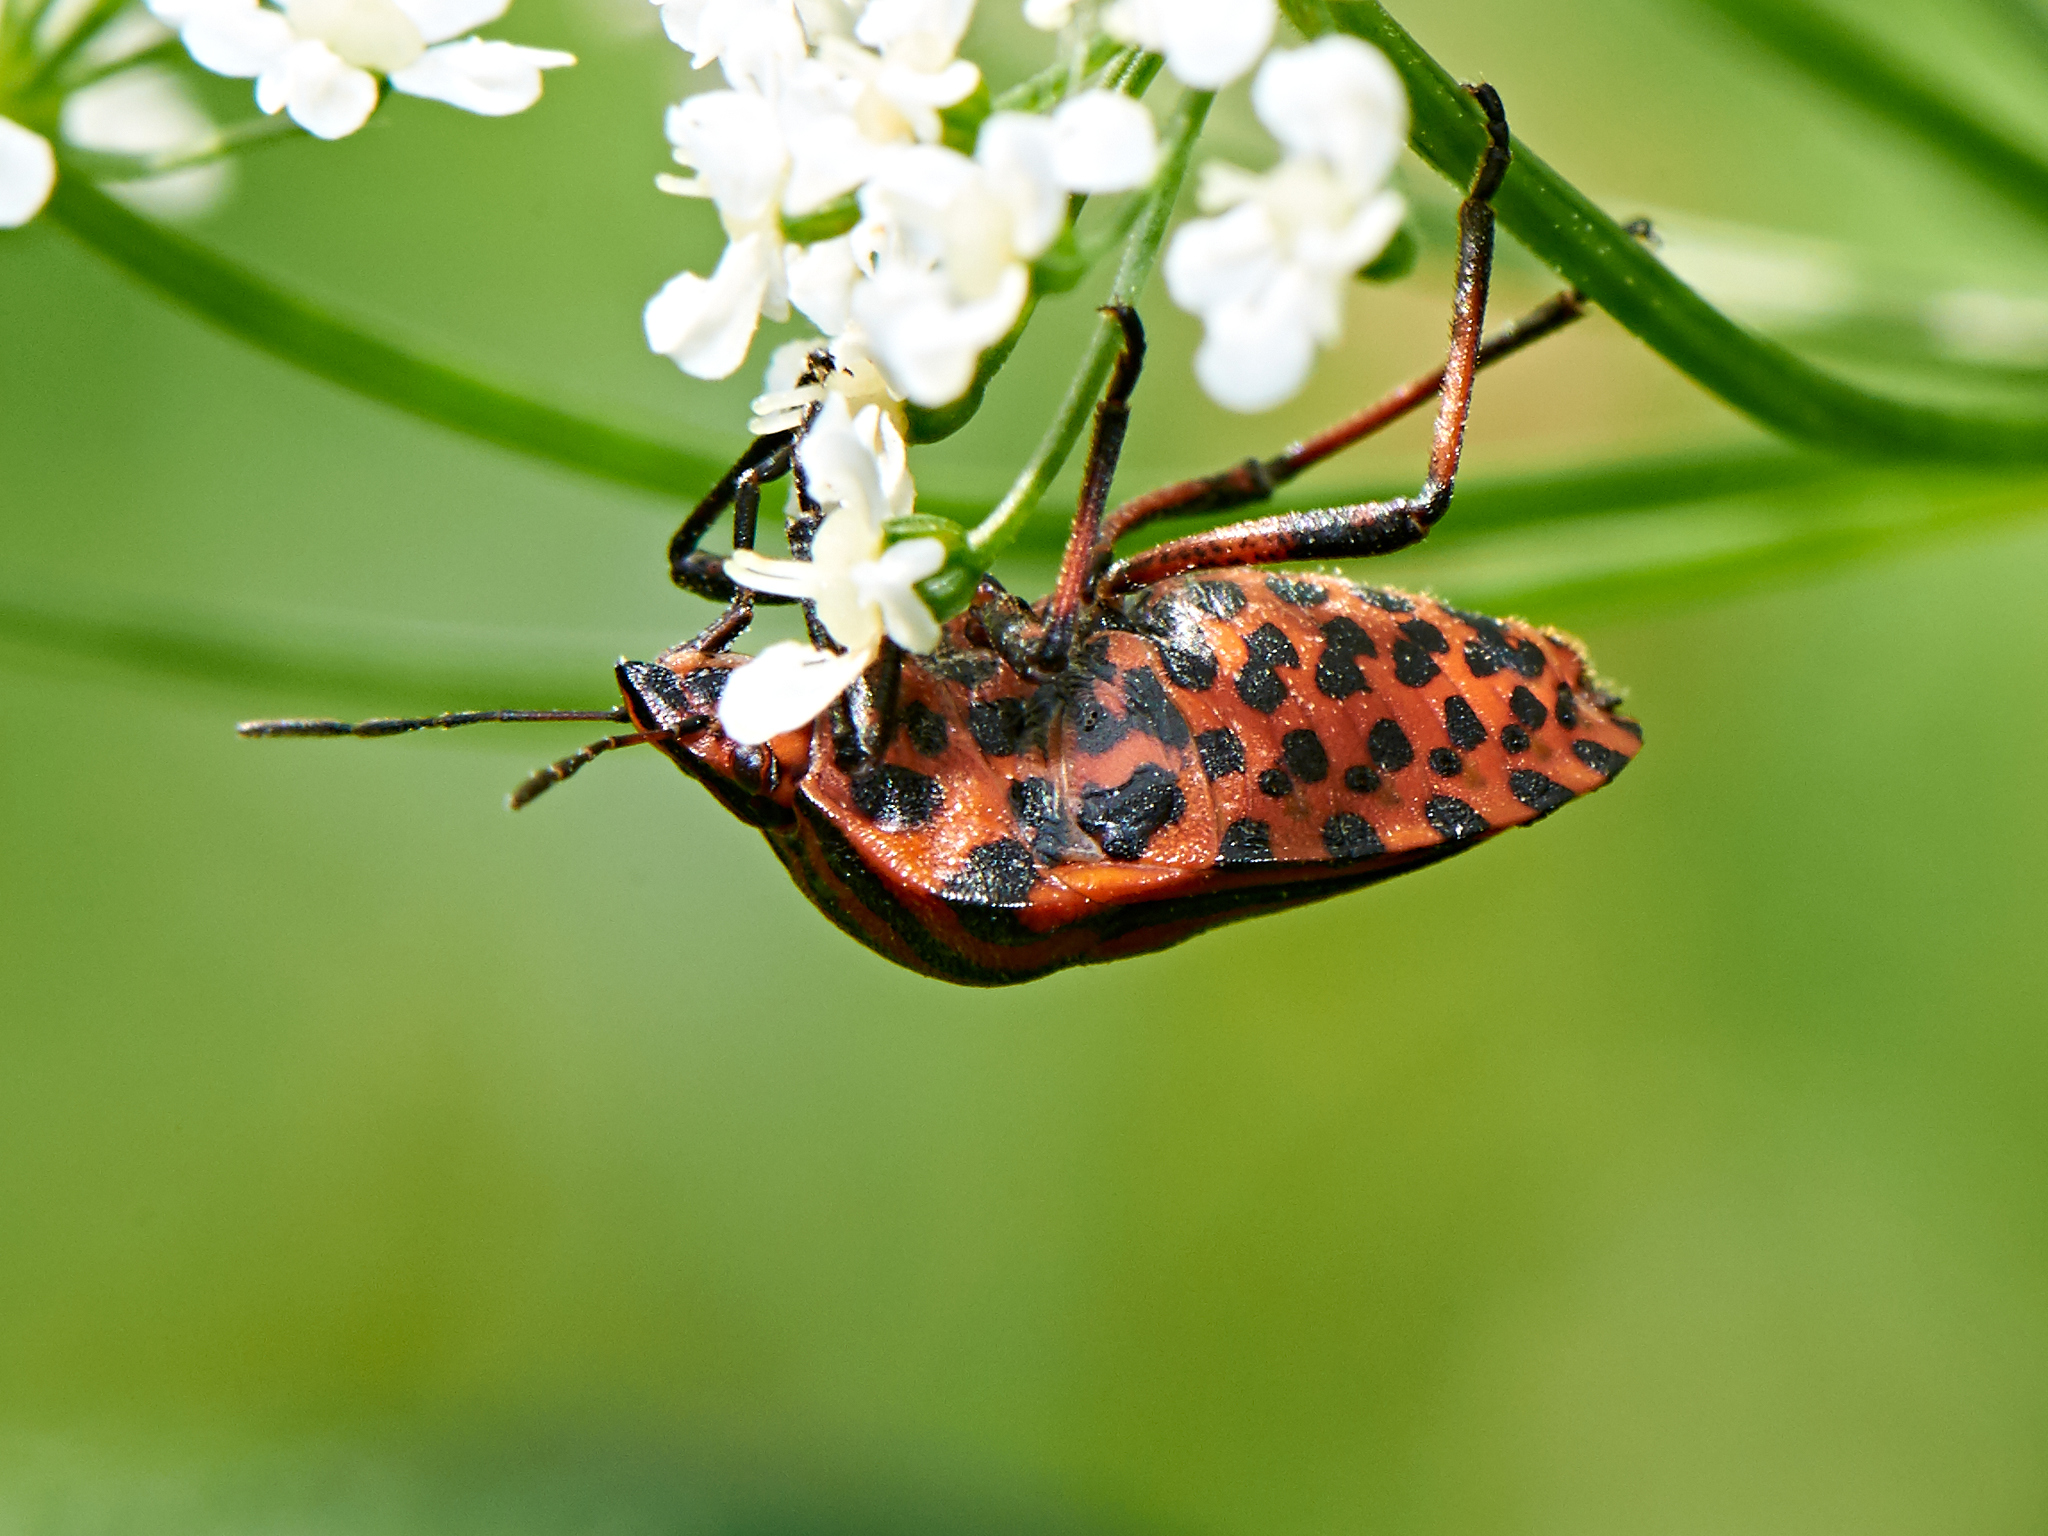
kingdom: Animalia
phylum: Arthropoda
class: Insecta
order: Hemiptera
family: Pentatomidae
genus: Graphosoma
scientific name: Graphosoma italicum
